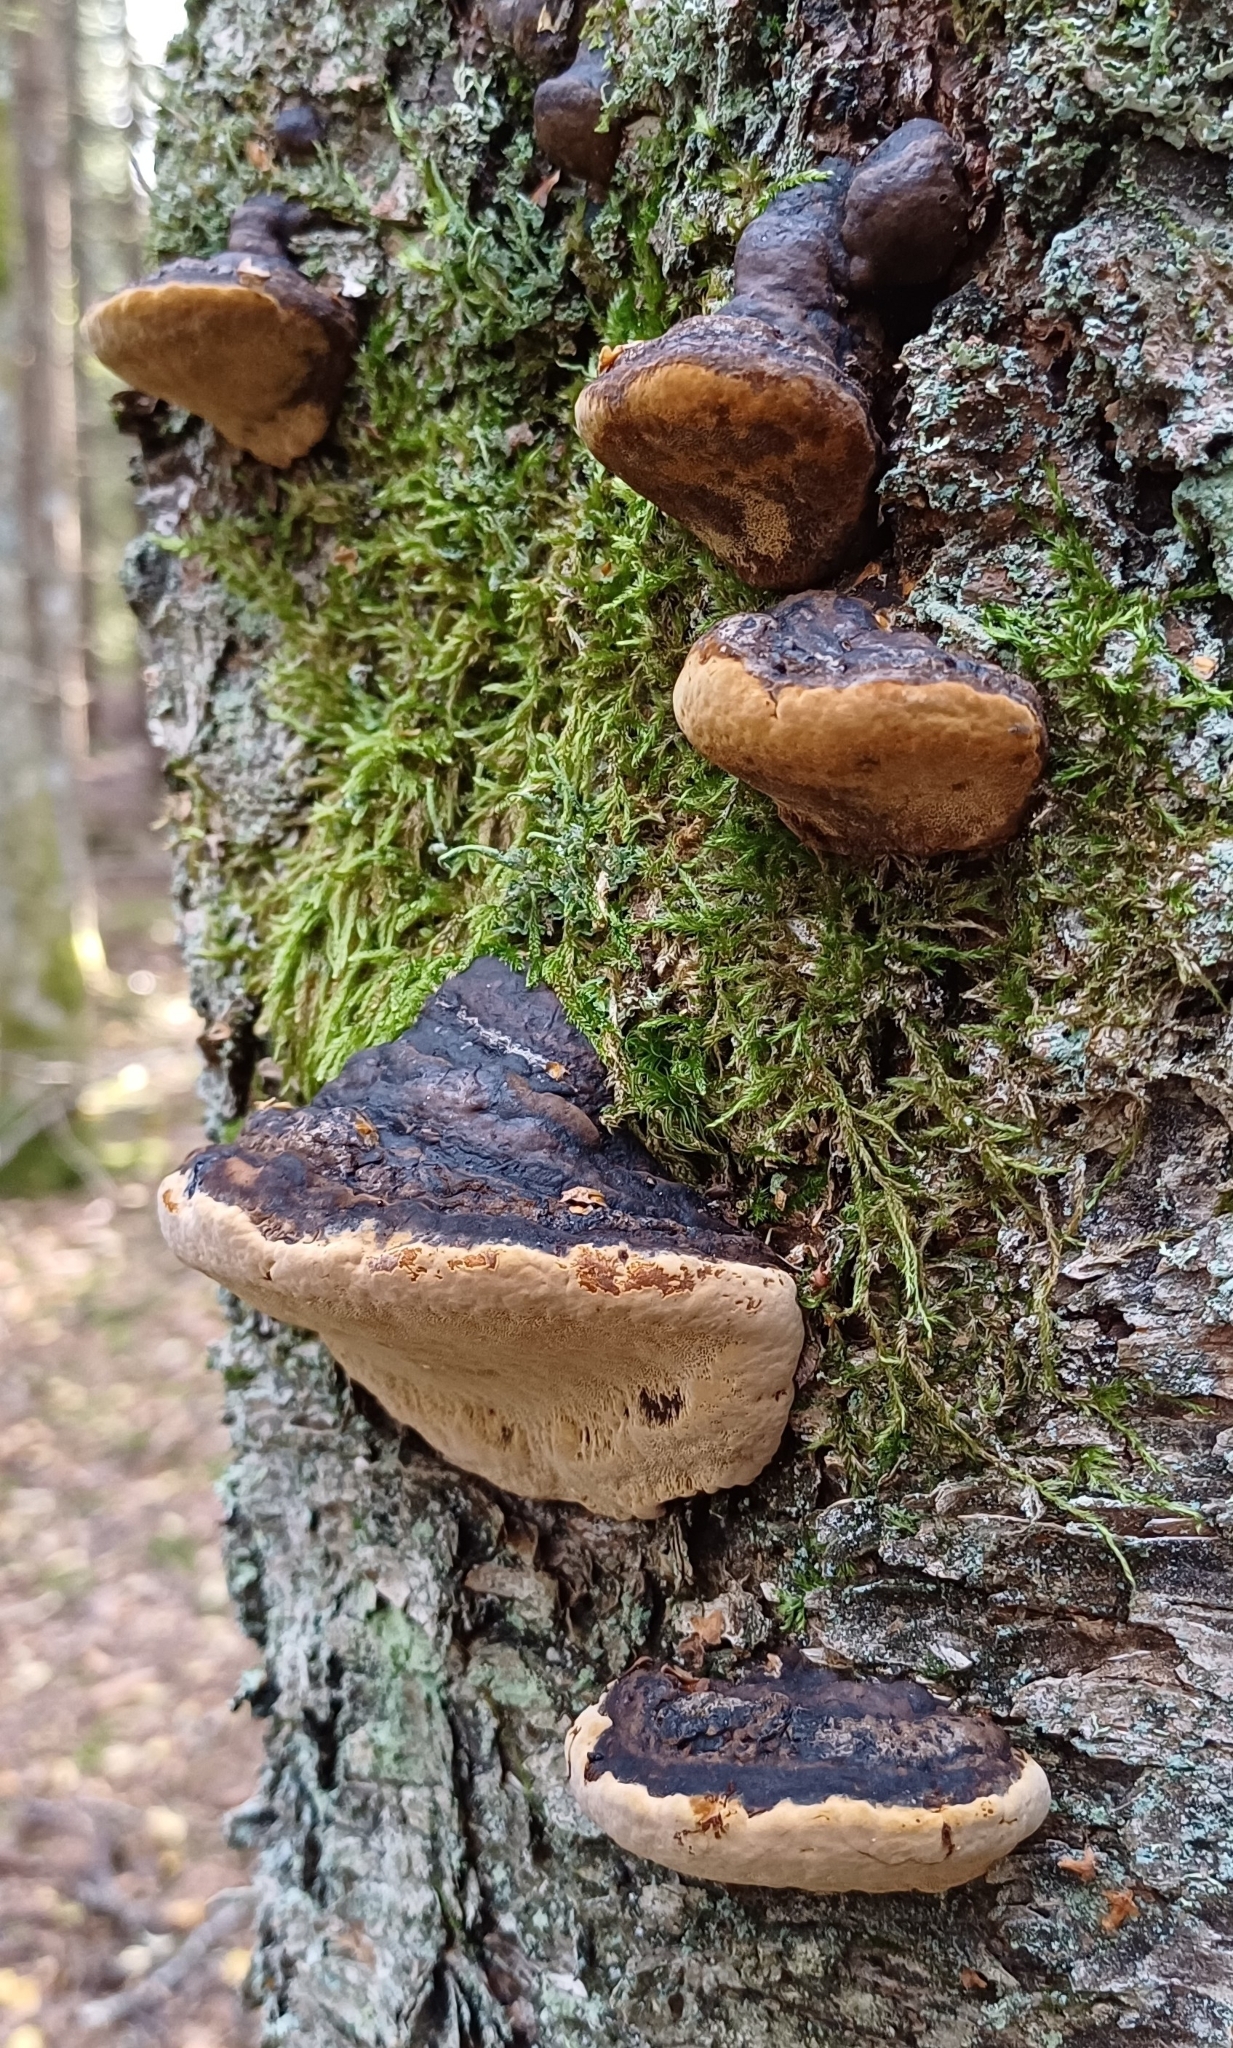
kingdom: Fungi
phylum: Basidiomycota
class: Agaricomycetes
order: Hymenochaetales
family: Hymenochaetaceae
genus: Phellinus
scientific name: Phellinus igniarius
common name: Willow bracket
